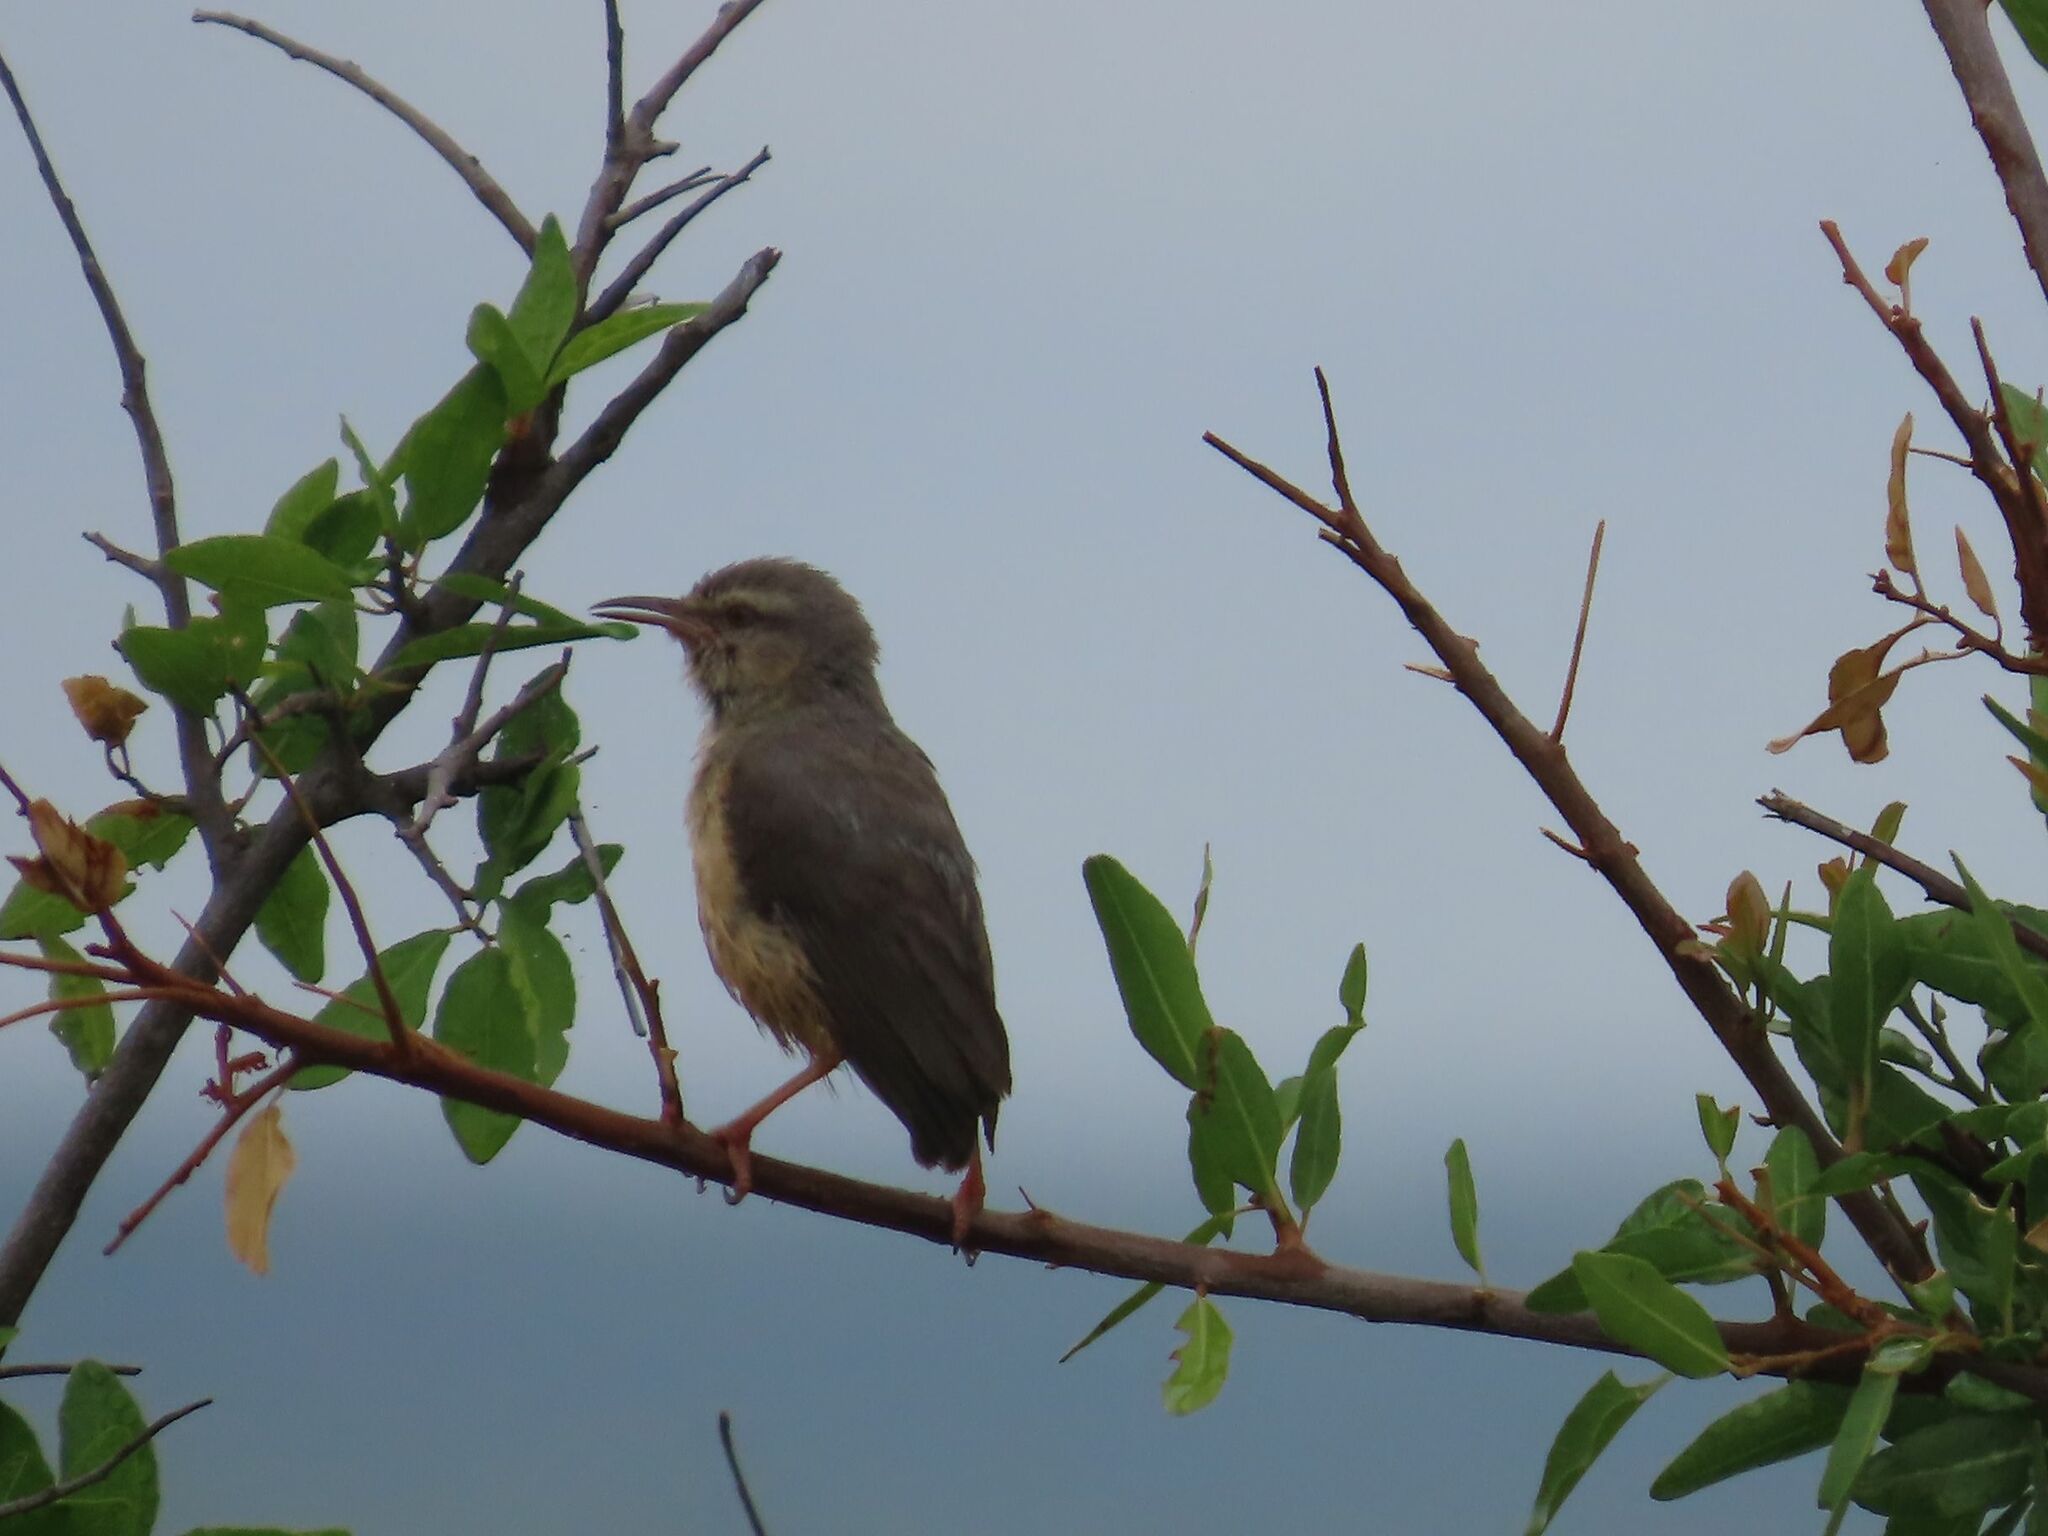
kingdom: Animalia
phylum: Chordata
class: Aves
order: Passeriformes
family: Macrosphenidae
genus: Sylvietta
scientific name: Sylvietta rufescens
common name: Long-billed crombec
